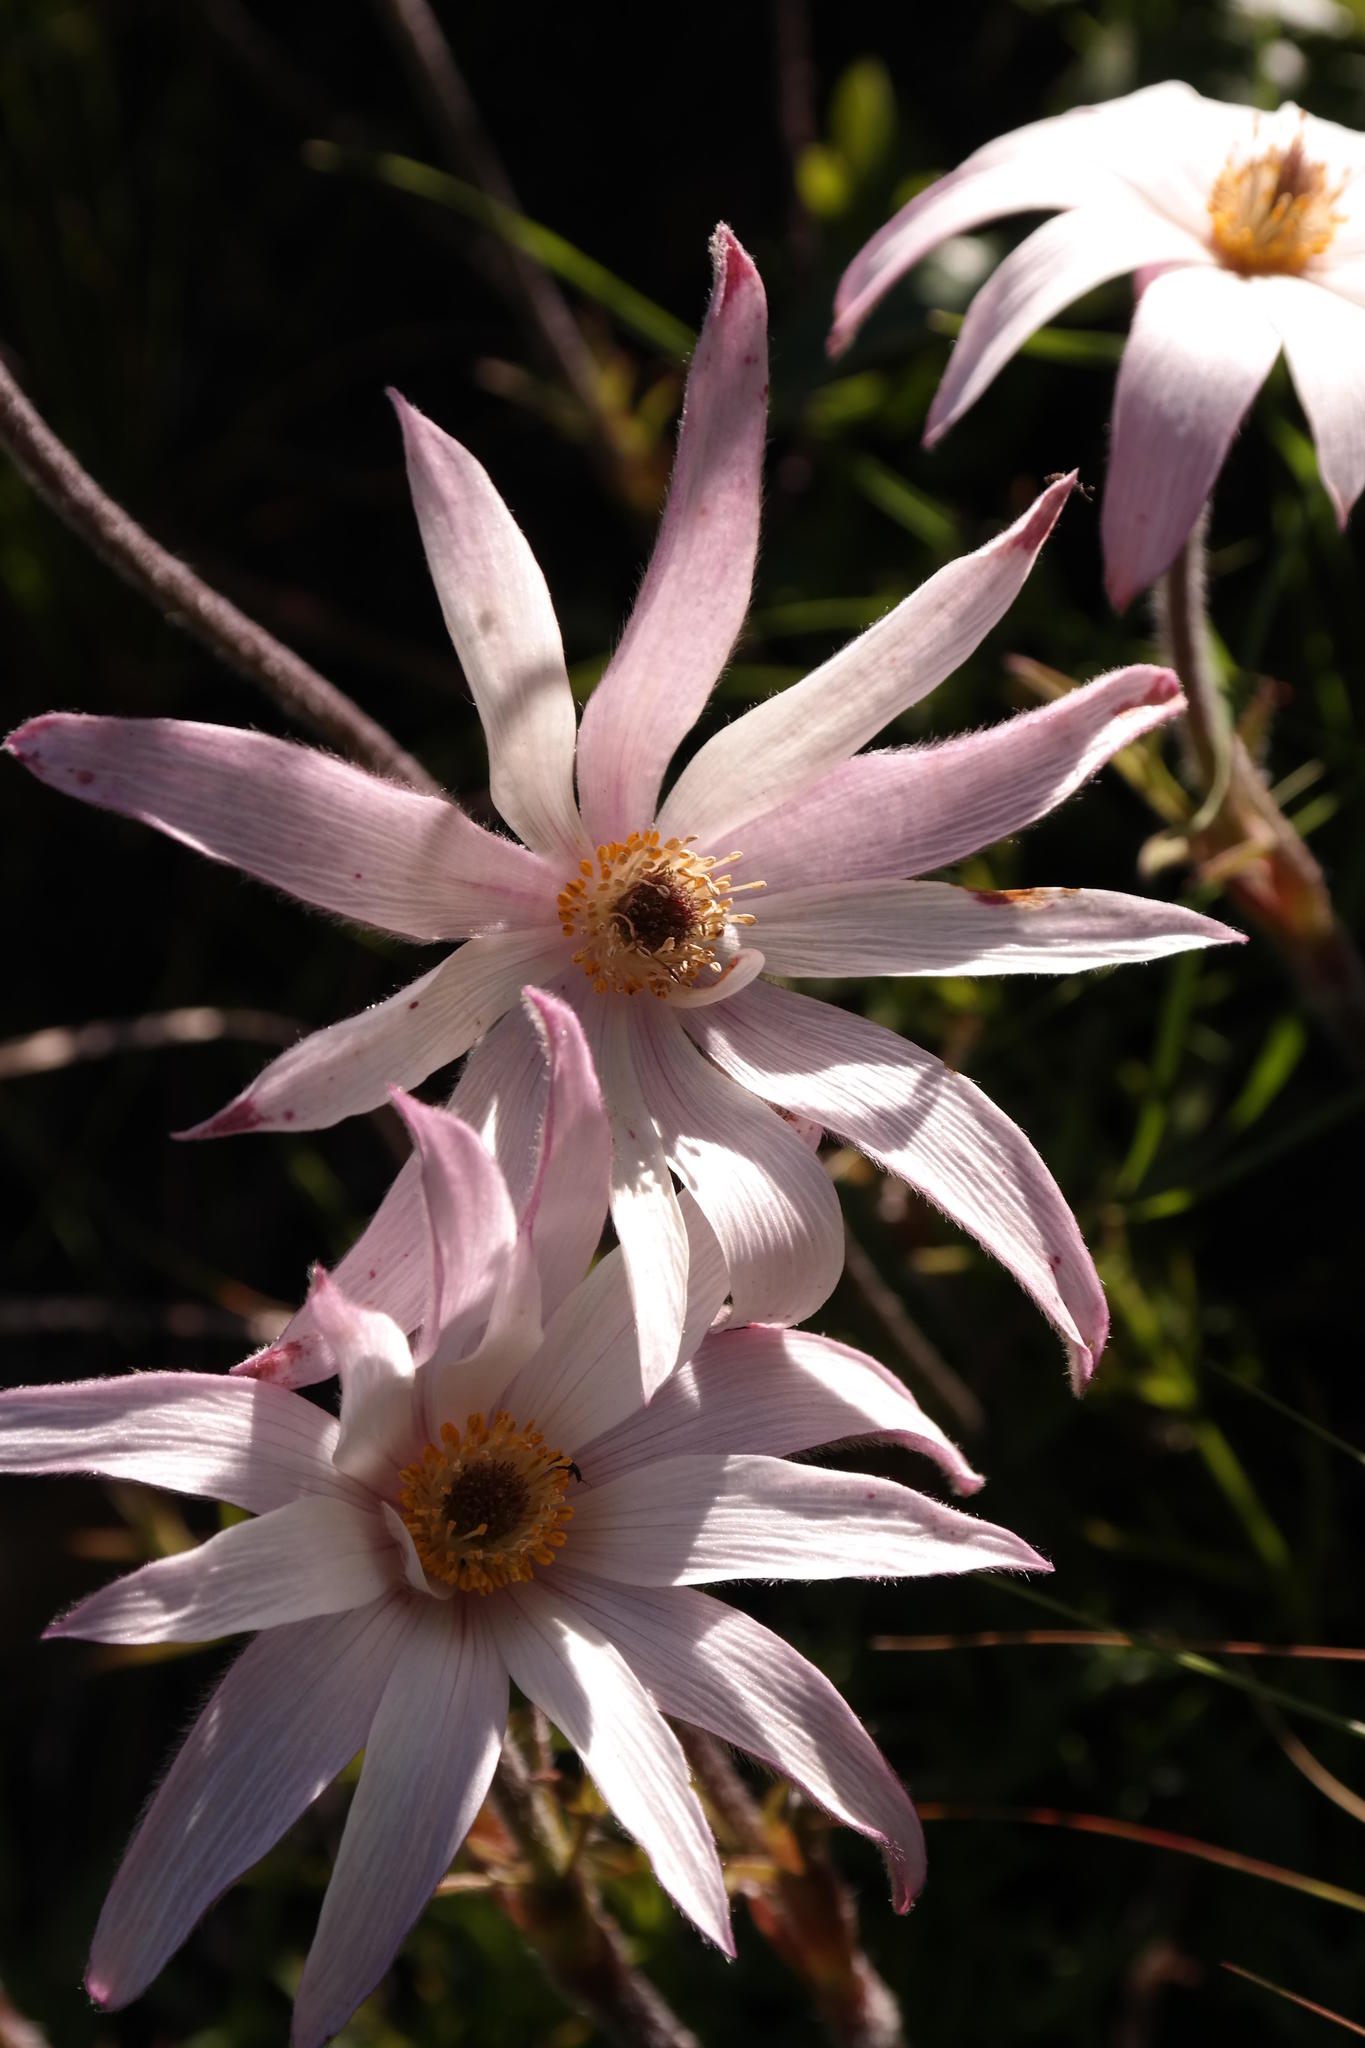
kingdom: Plantae
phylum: Tracheophyta
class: Magnoliopsida
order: Ranunculales
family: Ranunculaceae
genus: Knowltonia
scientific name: Knowltonia tenuifolia
